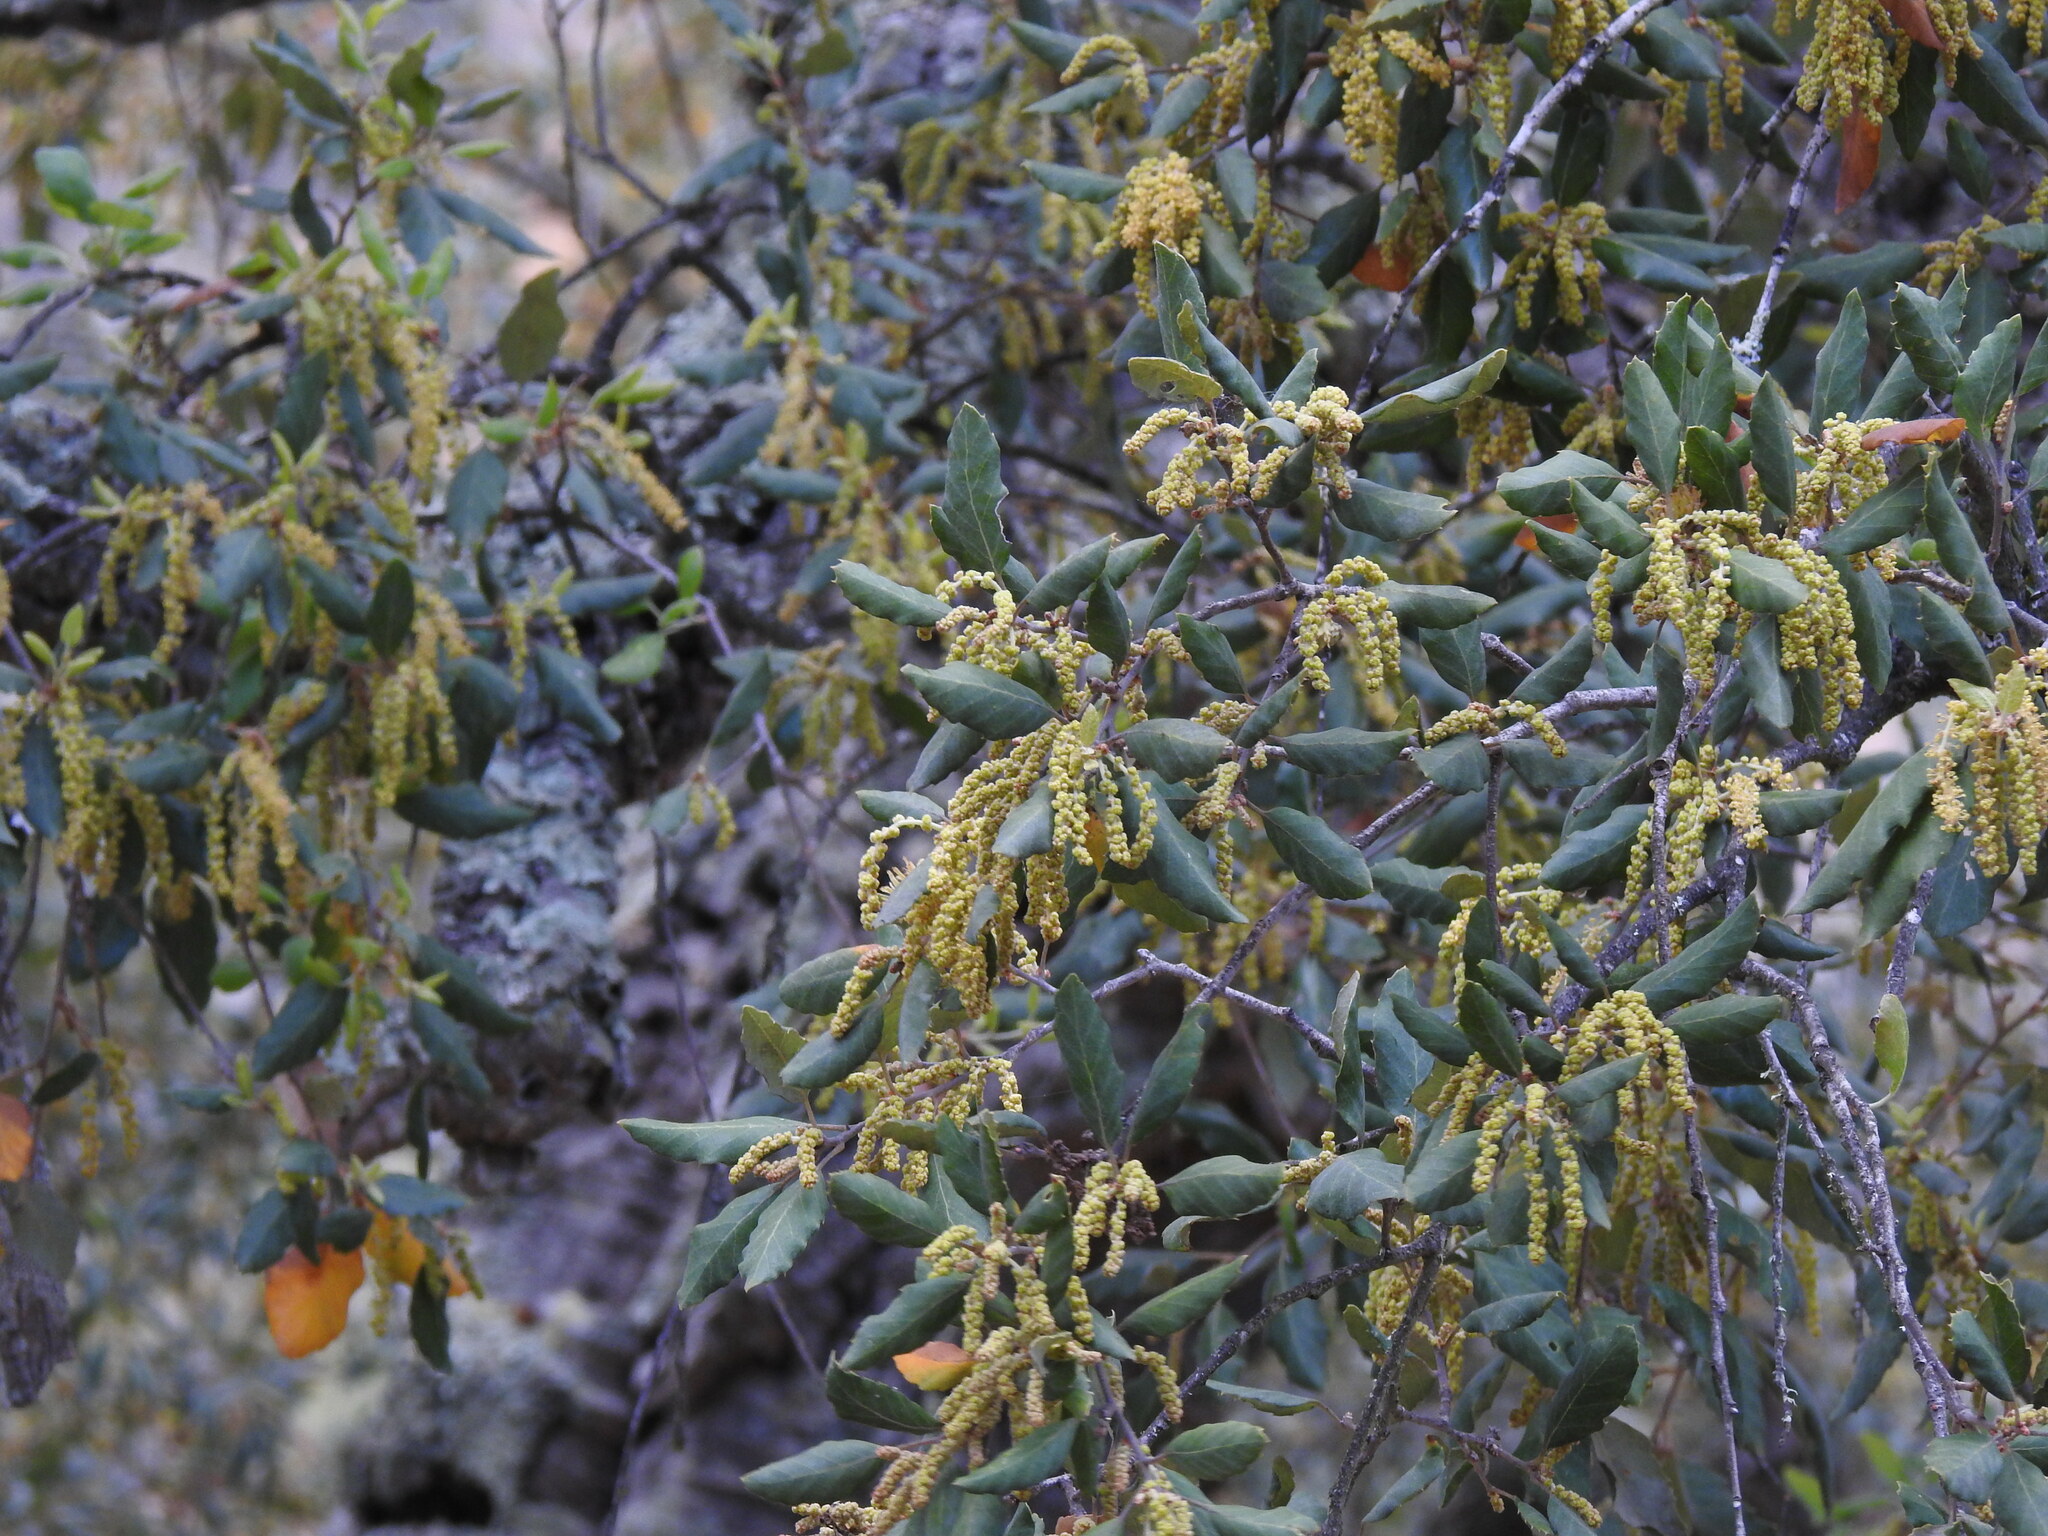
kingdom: Plantae
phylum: Tracheophyta
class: Magnoliopsida
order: Fagales
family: Fagaceae
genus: Quercus
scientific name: Quercus suber
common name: Cork oak
